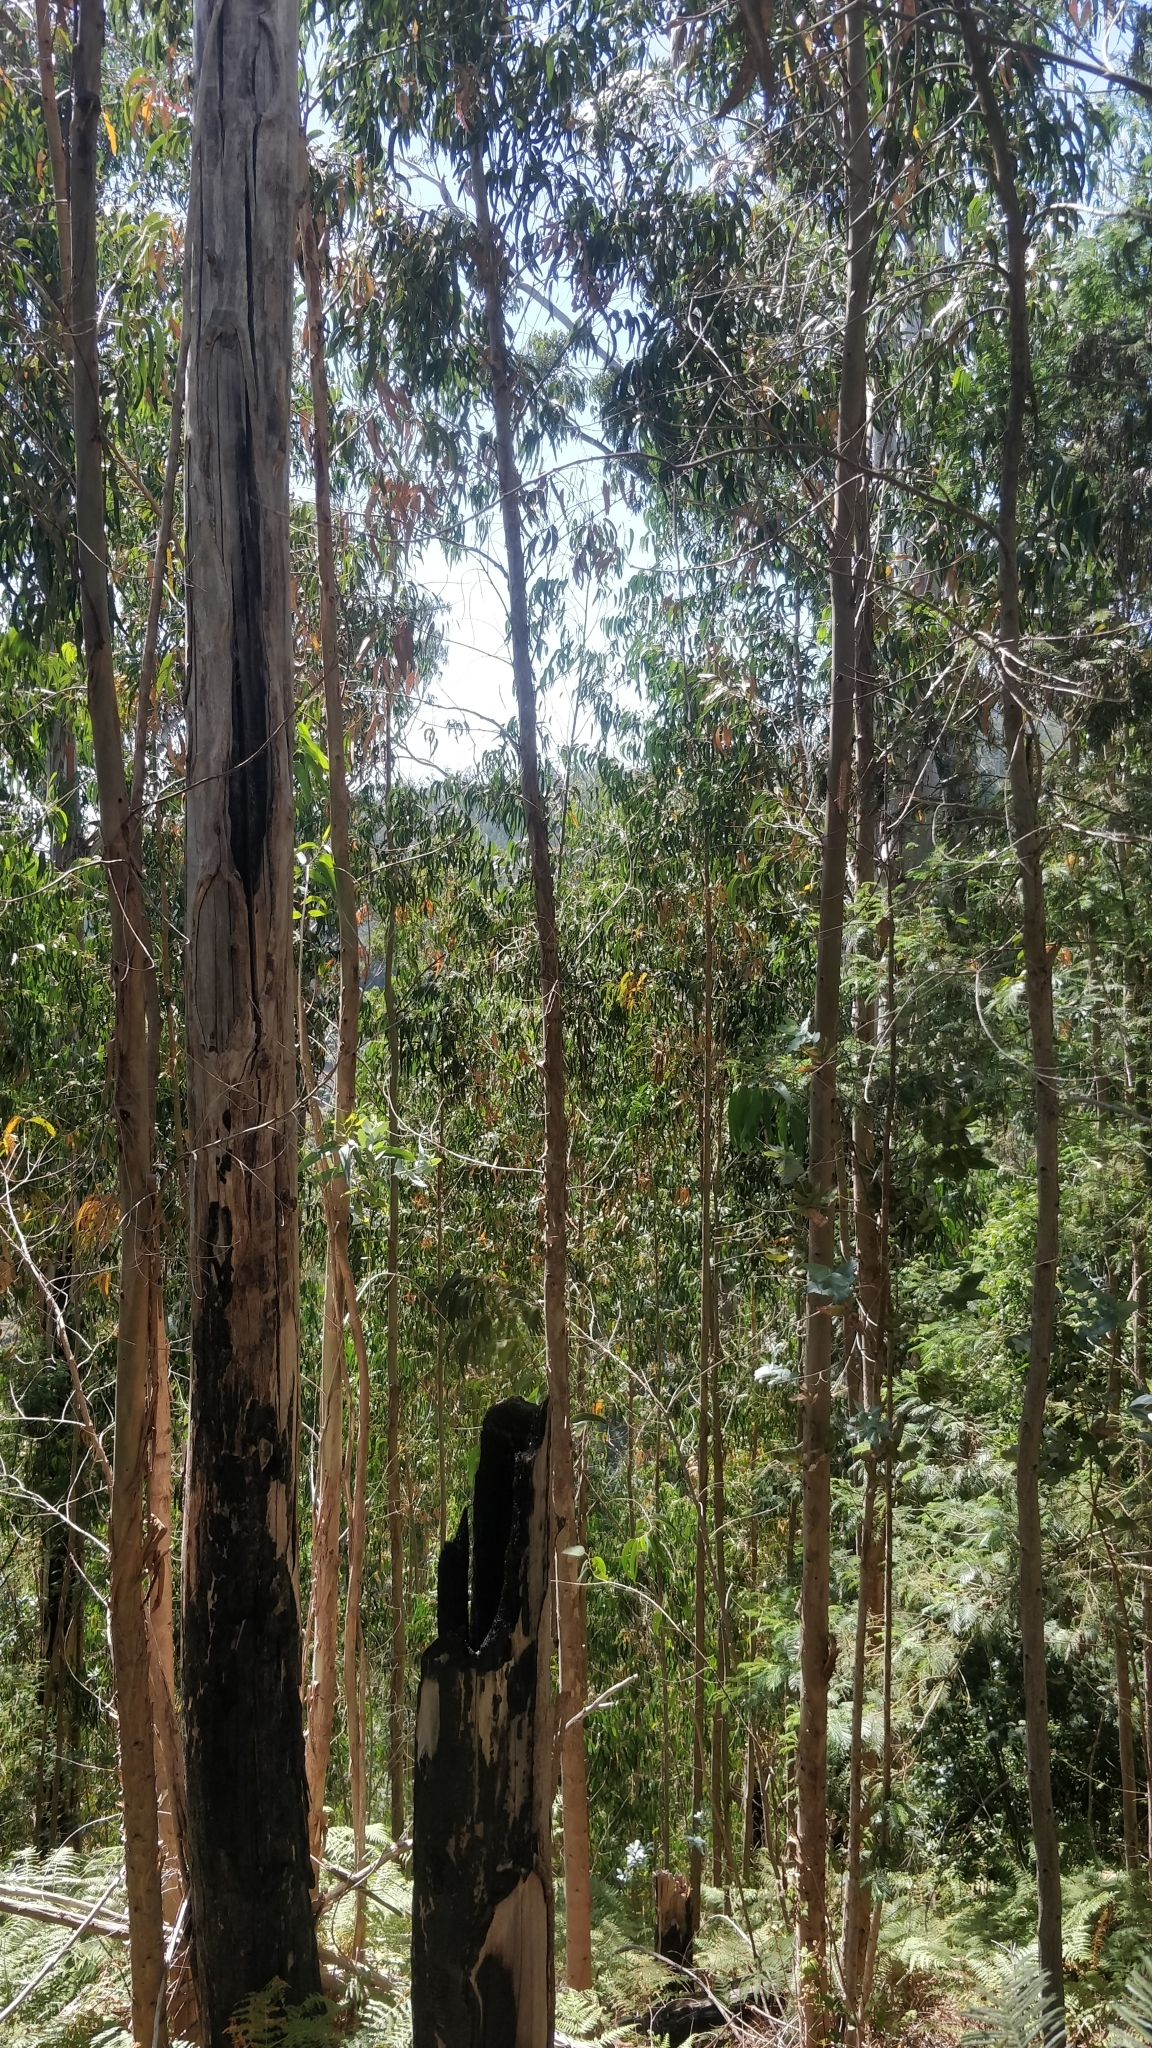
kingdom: Plantae
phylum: Tracheophyta
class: Magnoliopsida
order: Myrtales
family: Myrtaceae
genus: Eucalyptus
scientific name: Eucalyptus globulus
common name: Southern blue-gum
